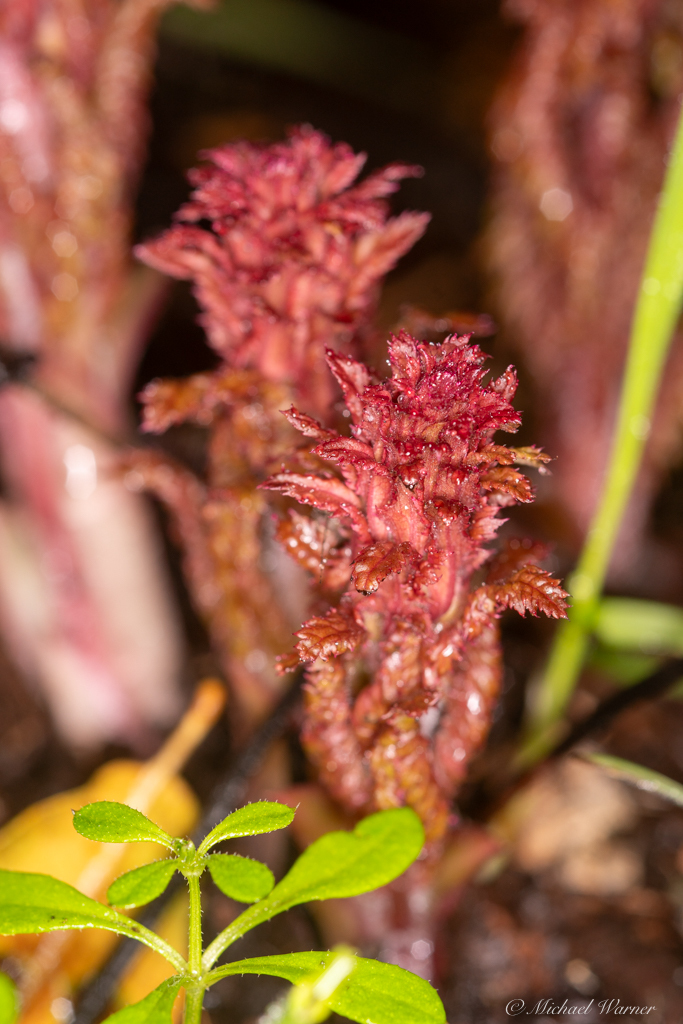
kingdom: Plantae
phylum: Tracheophyta
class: Magnoliopsida
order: Lamiales
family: Orobanchaceae
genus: Pedicularis
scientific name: Pedicularis densiflora
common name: Indian warrior
